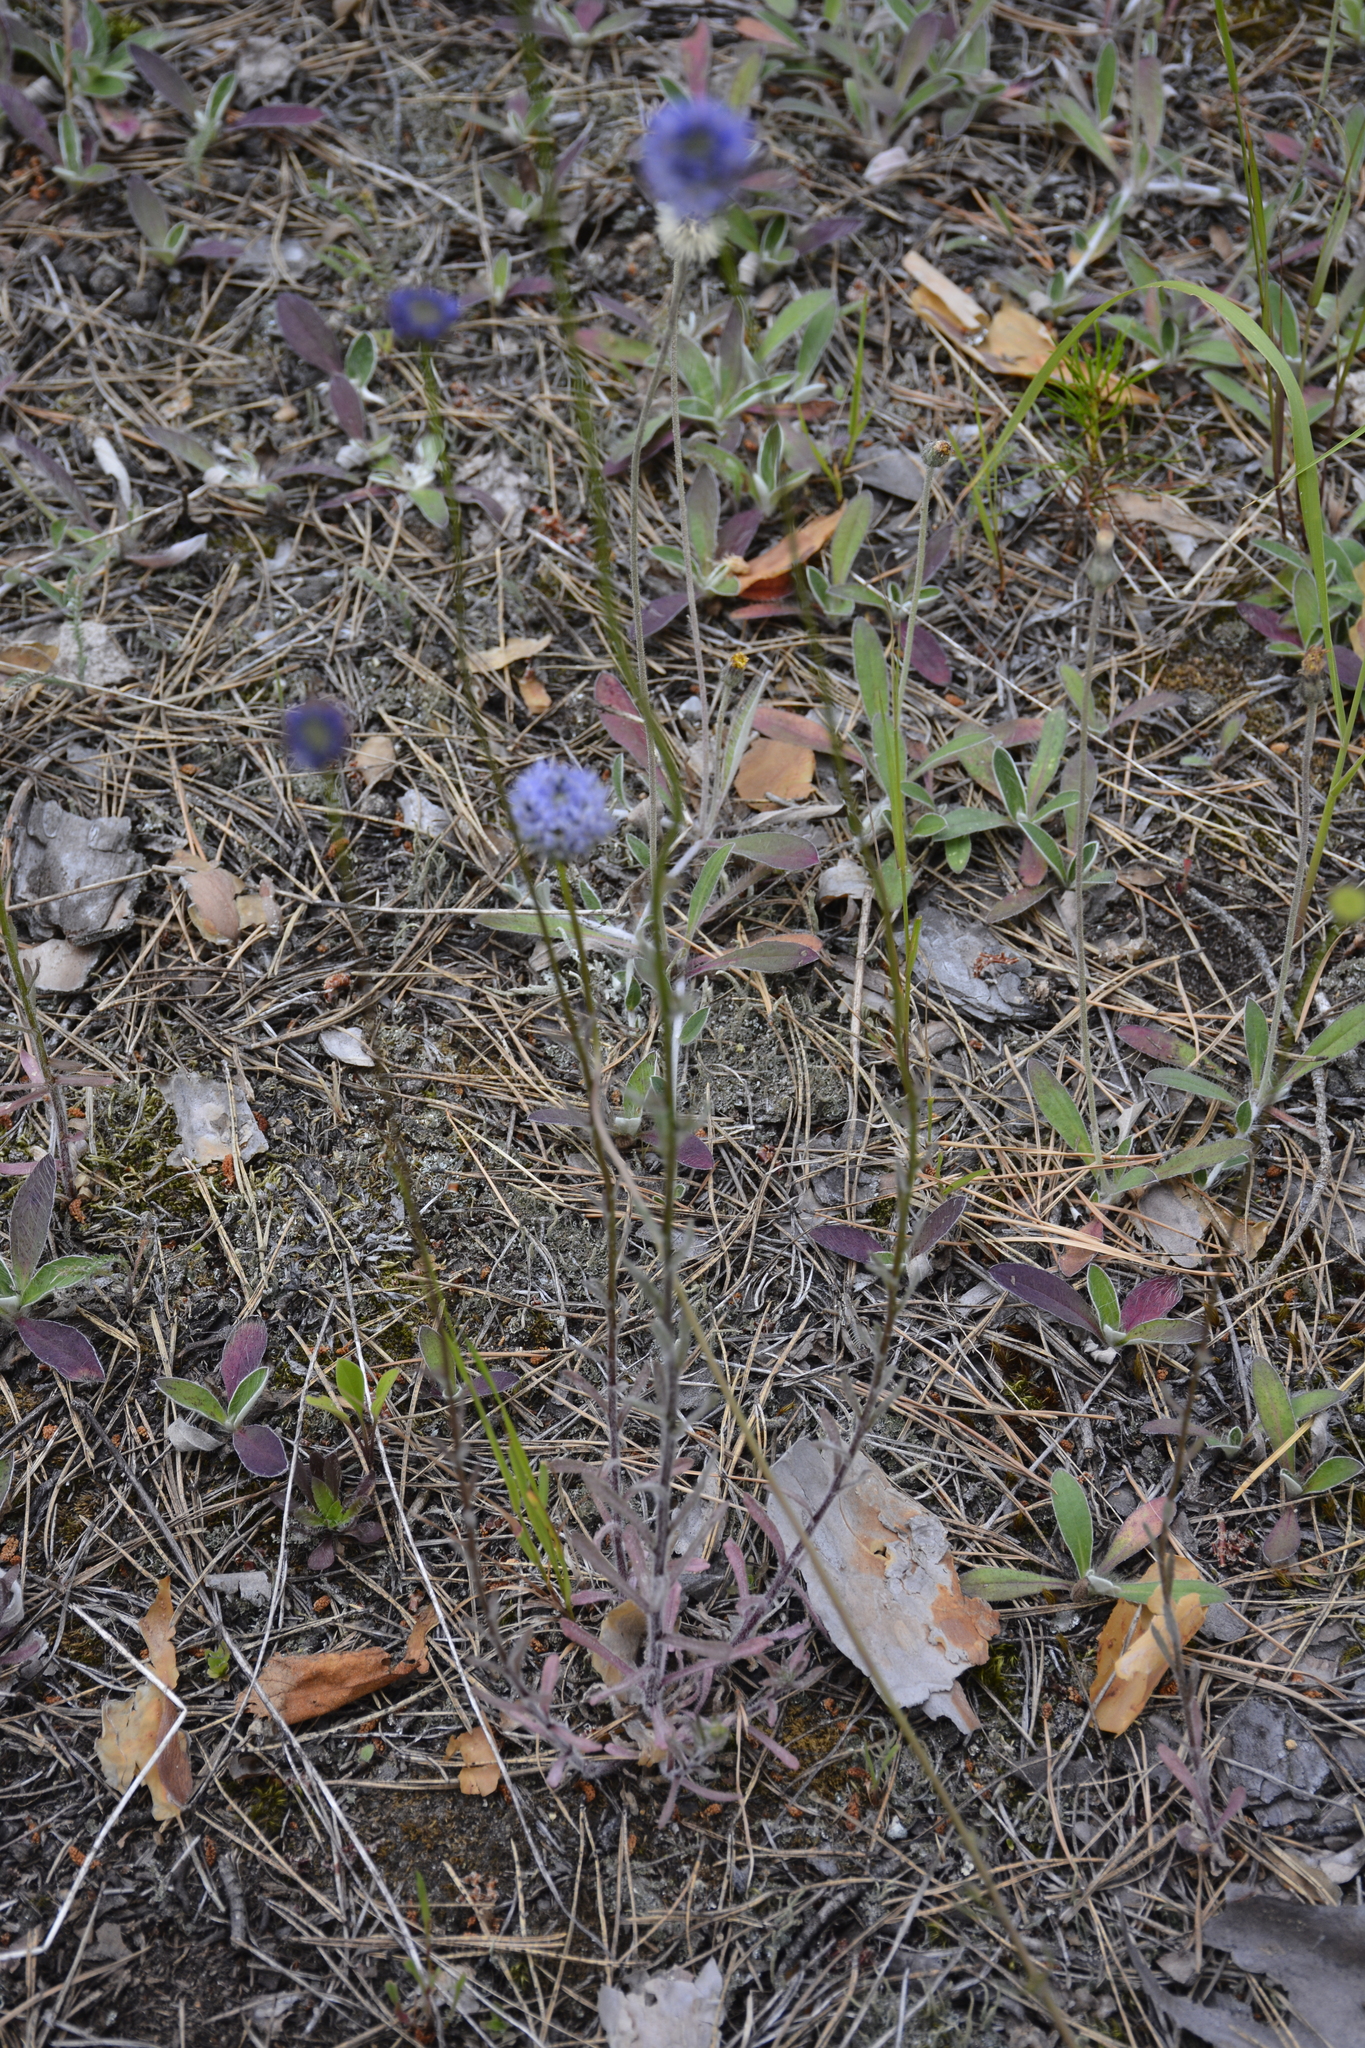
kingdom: Plantae
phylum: Tracheophyta
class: Magnoliopsida
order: Asterales
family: Campanulaceae
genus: Jasione
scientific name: Jasione montana
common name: Sheep's-bit
